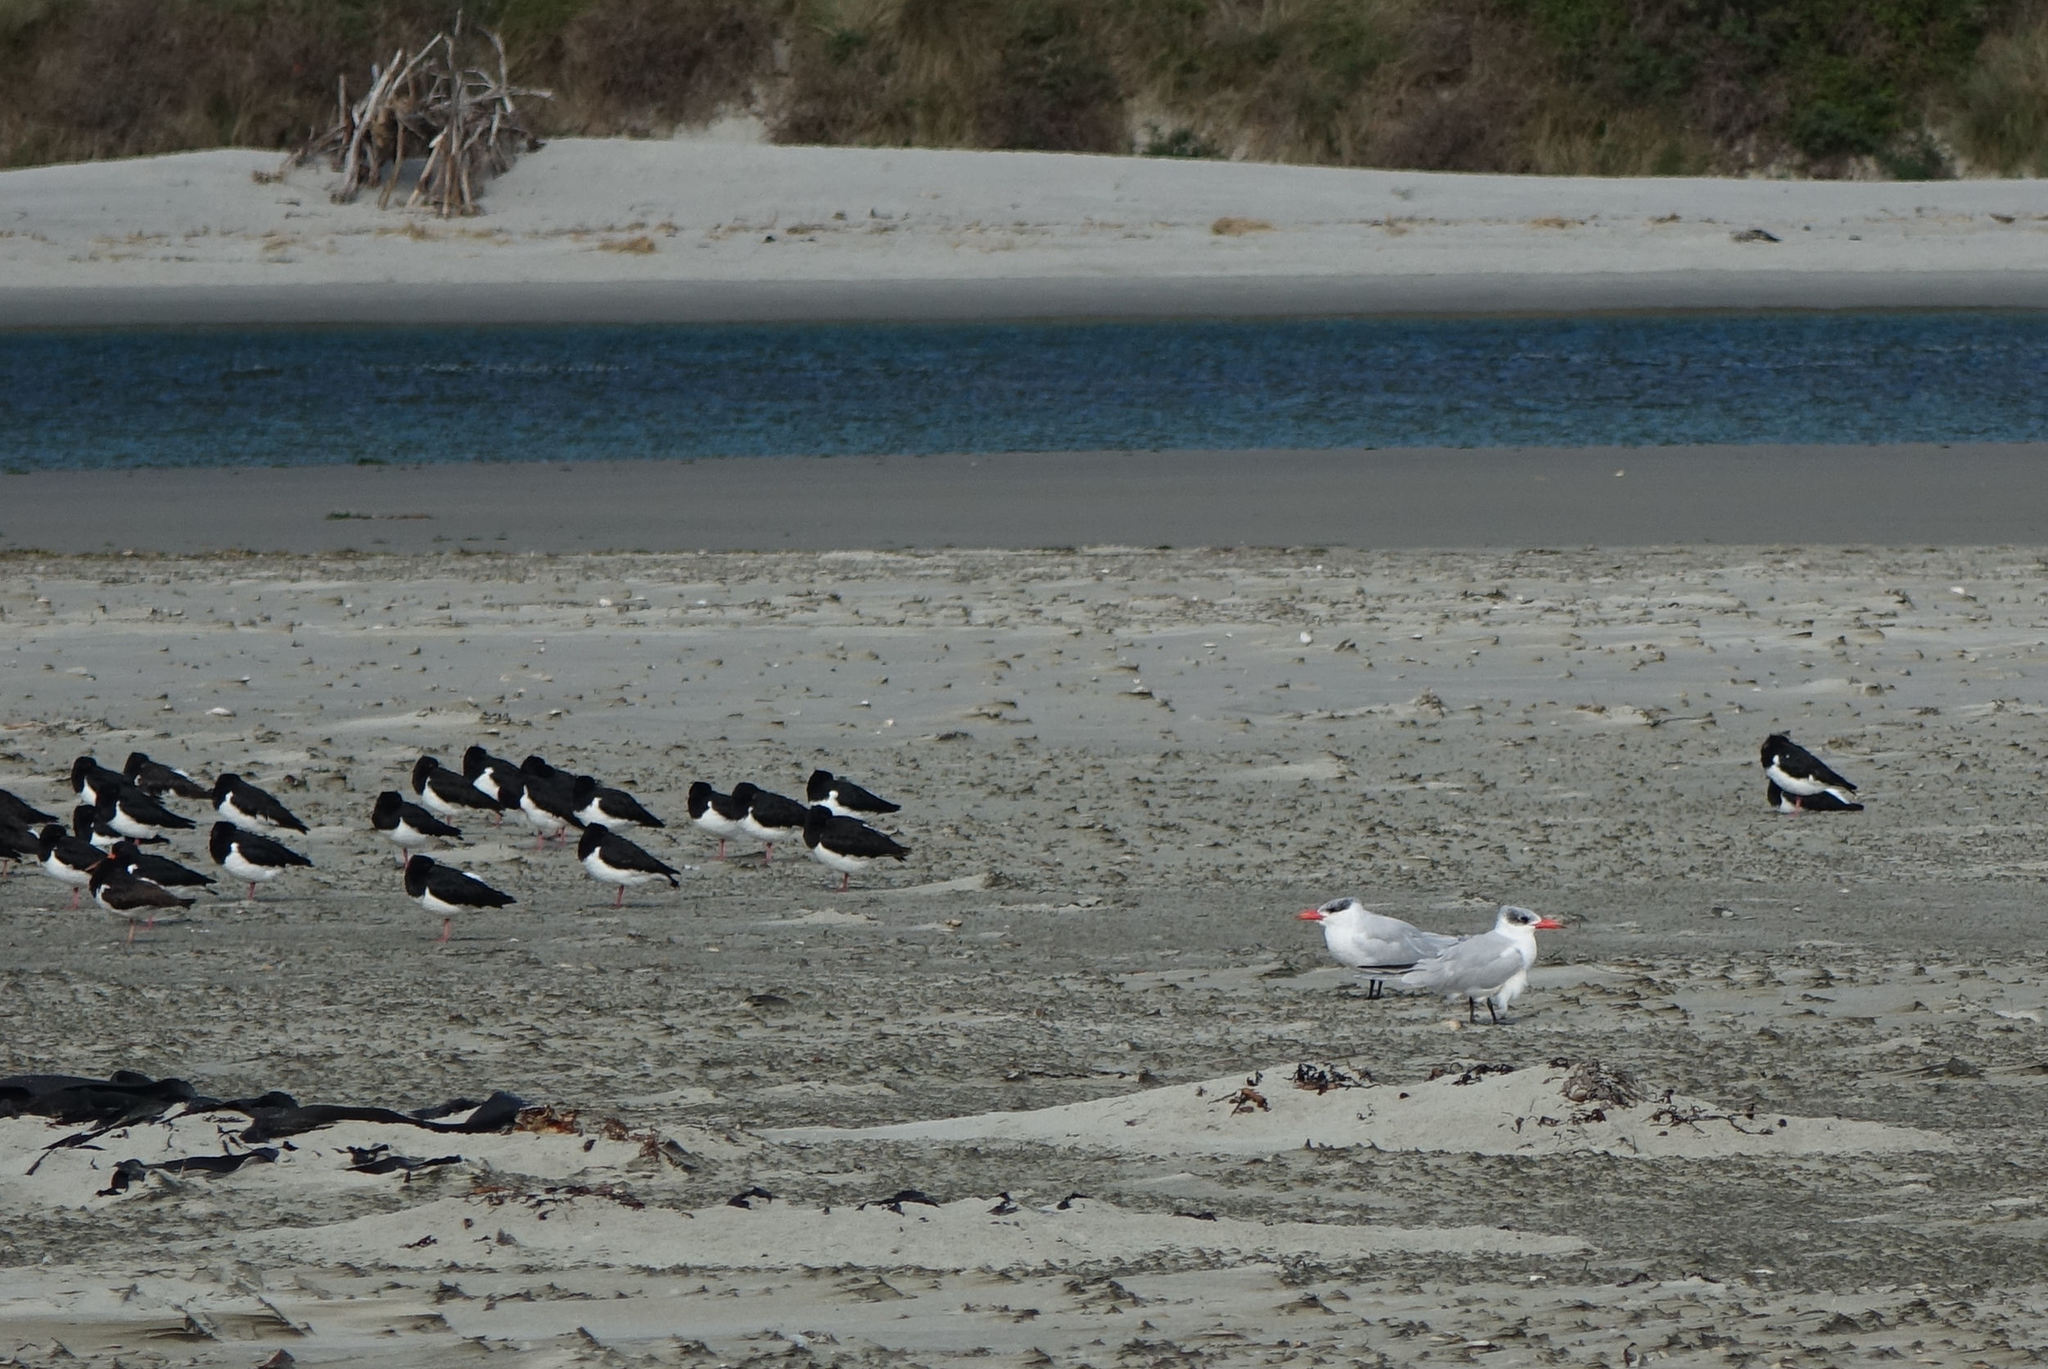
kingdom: Animalia
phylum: Chordata
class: Aves
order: Charadriiformes
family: Laridae
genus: Hydroprogne
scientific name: Hydroprogne caspia
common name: Caspian tern
